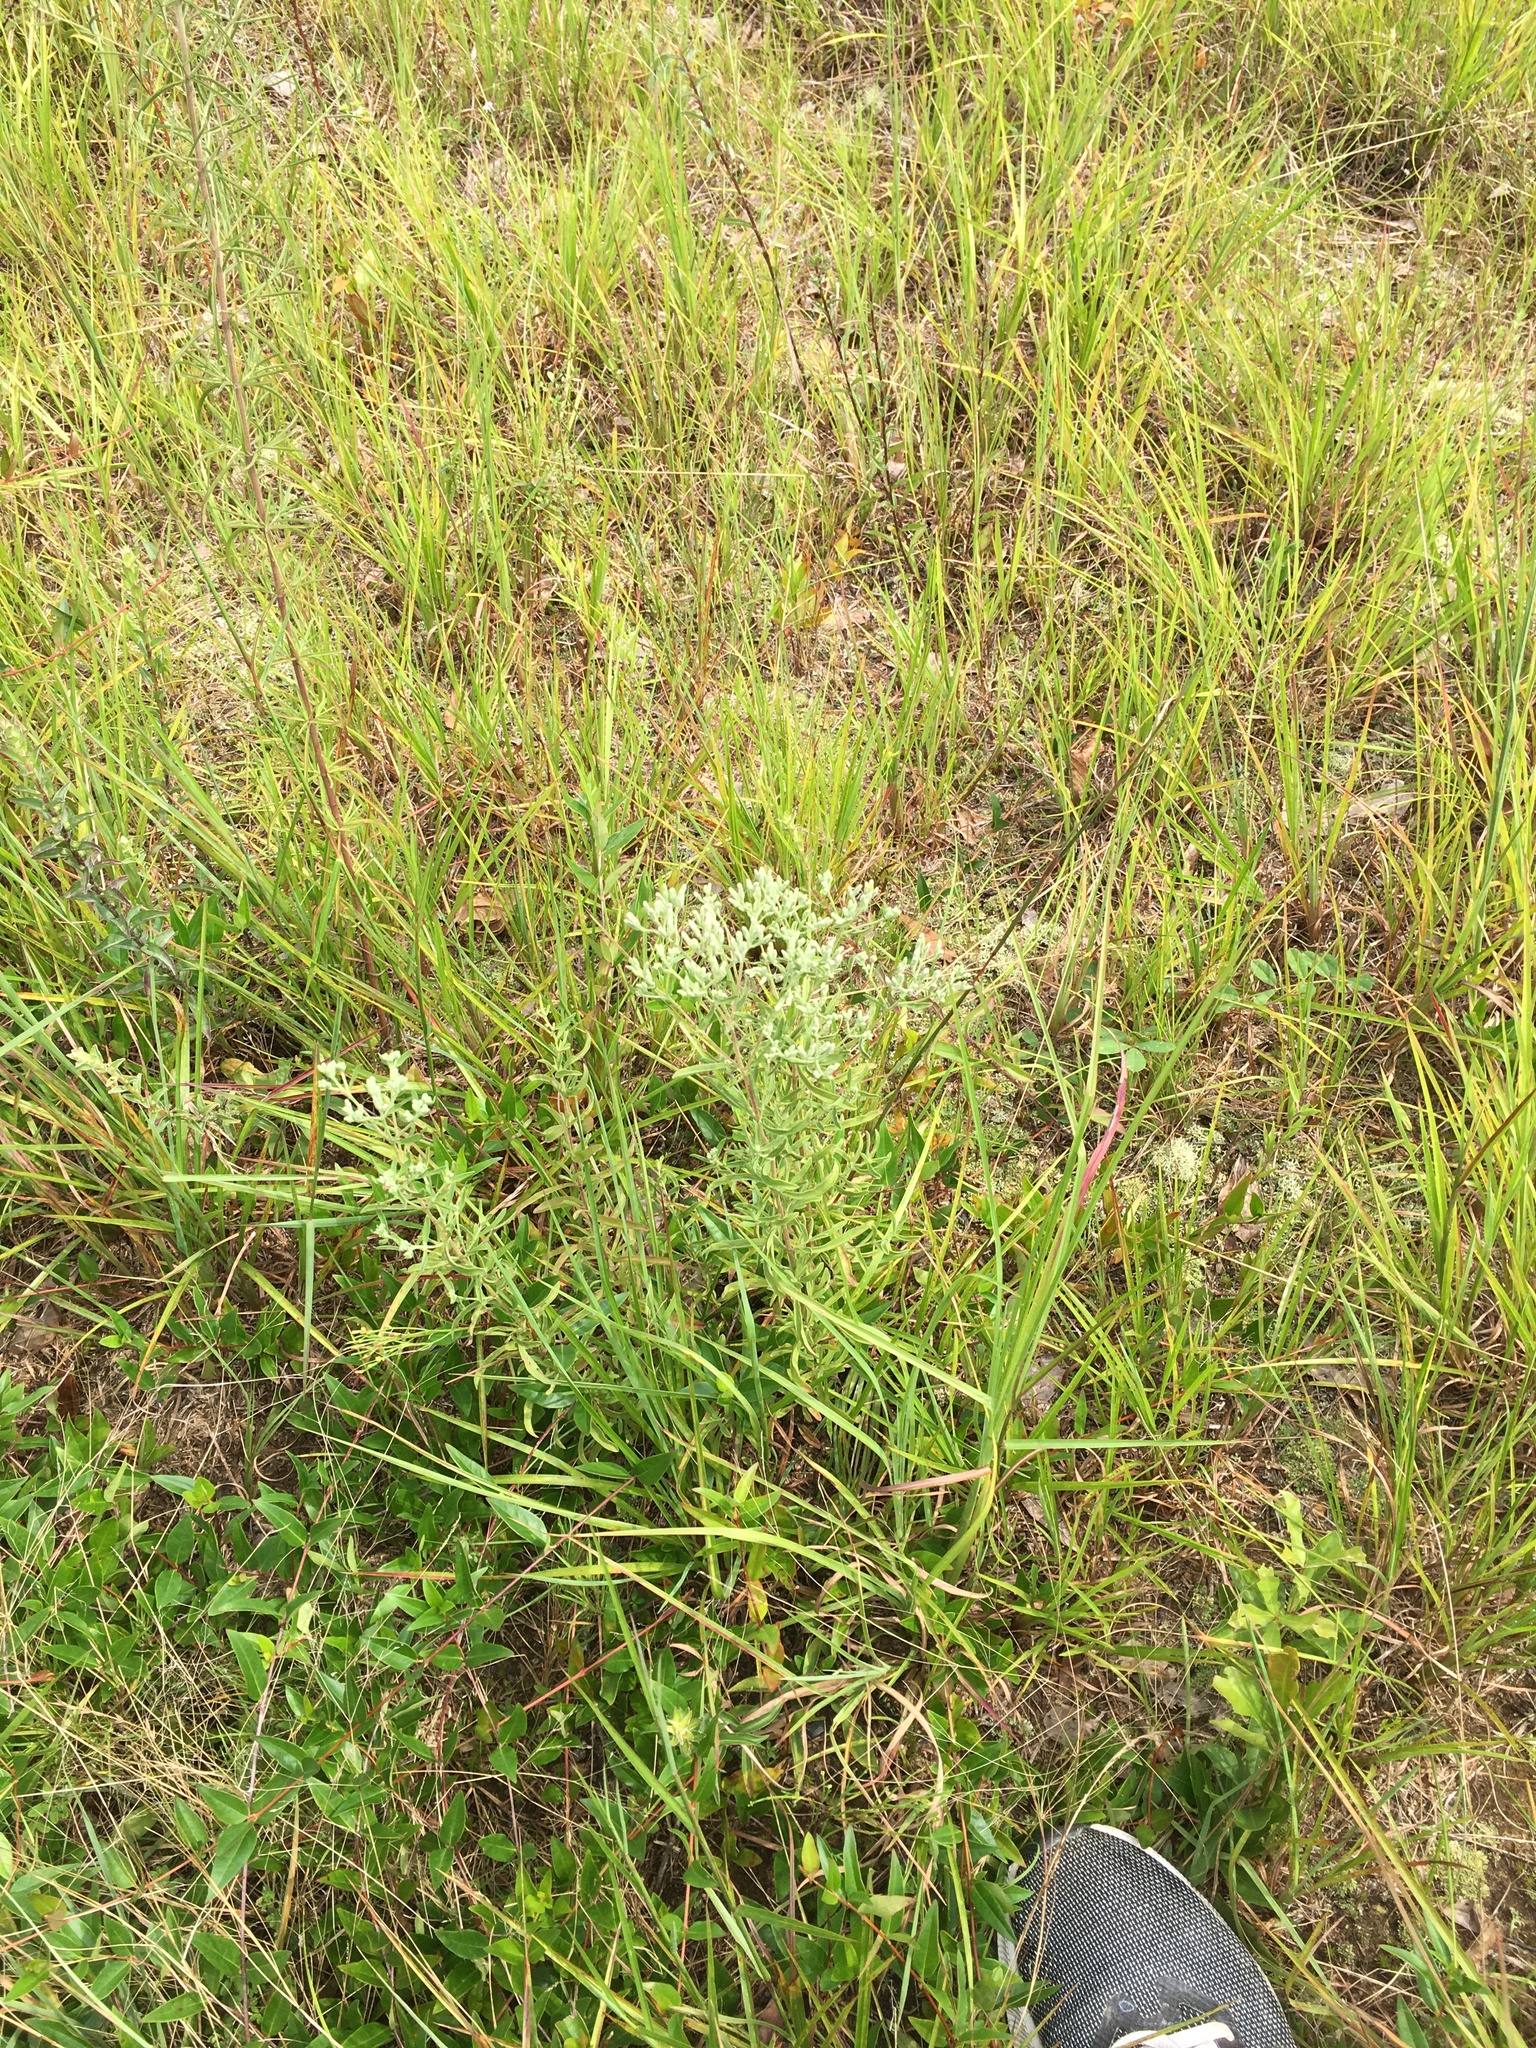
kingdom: Plantae
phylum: Tracheophyta
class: Magnoliopsida
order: Asterales
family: Asteraceae
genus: Eupatorium
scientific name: Eupatorium hyssopifolium
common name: Hyssop-leaf thoroughwort
